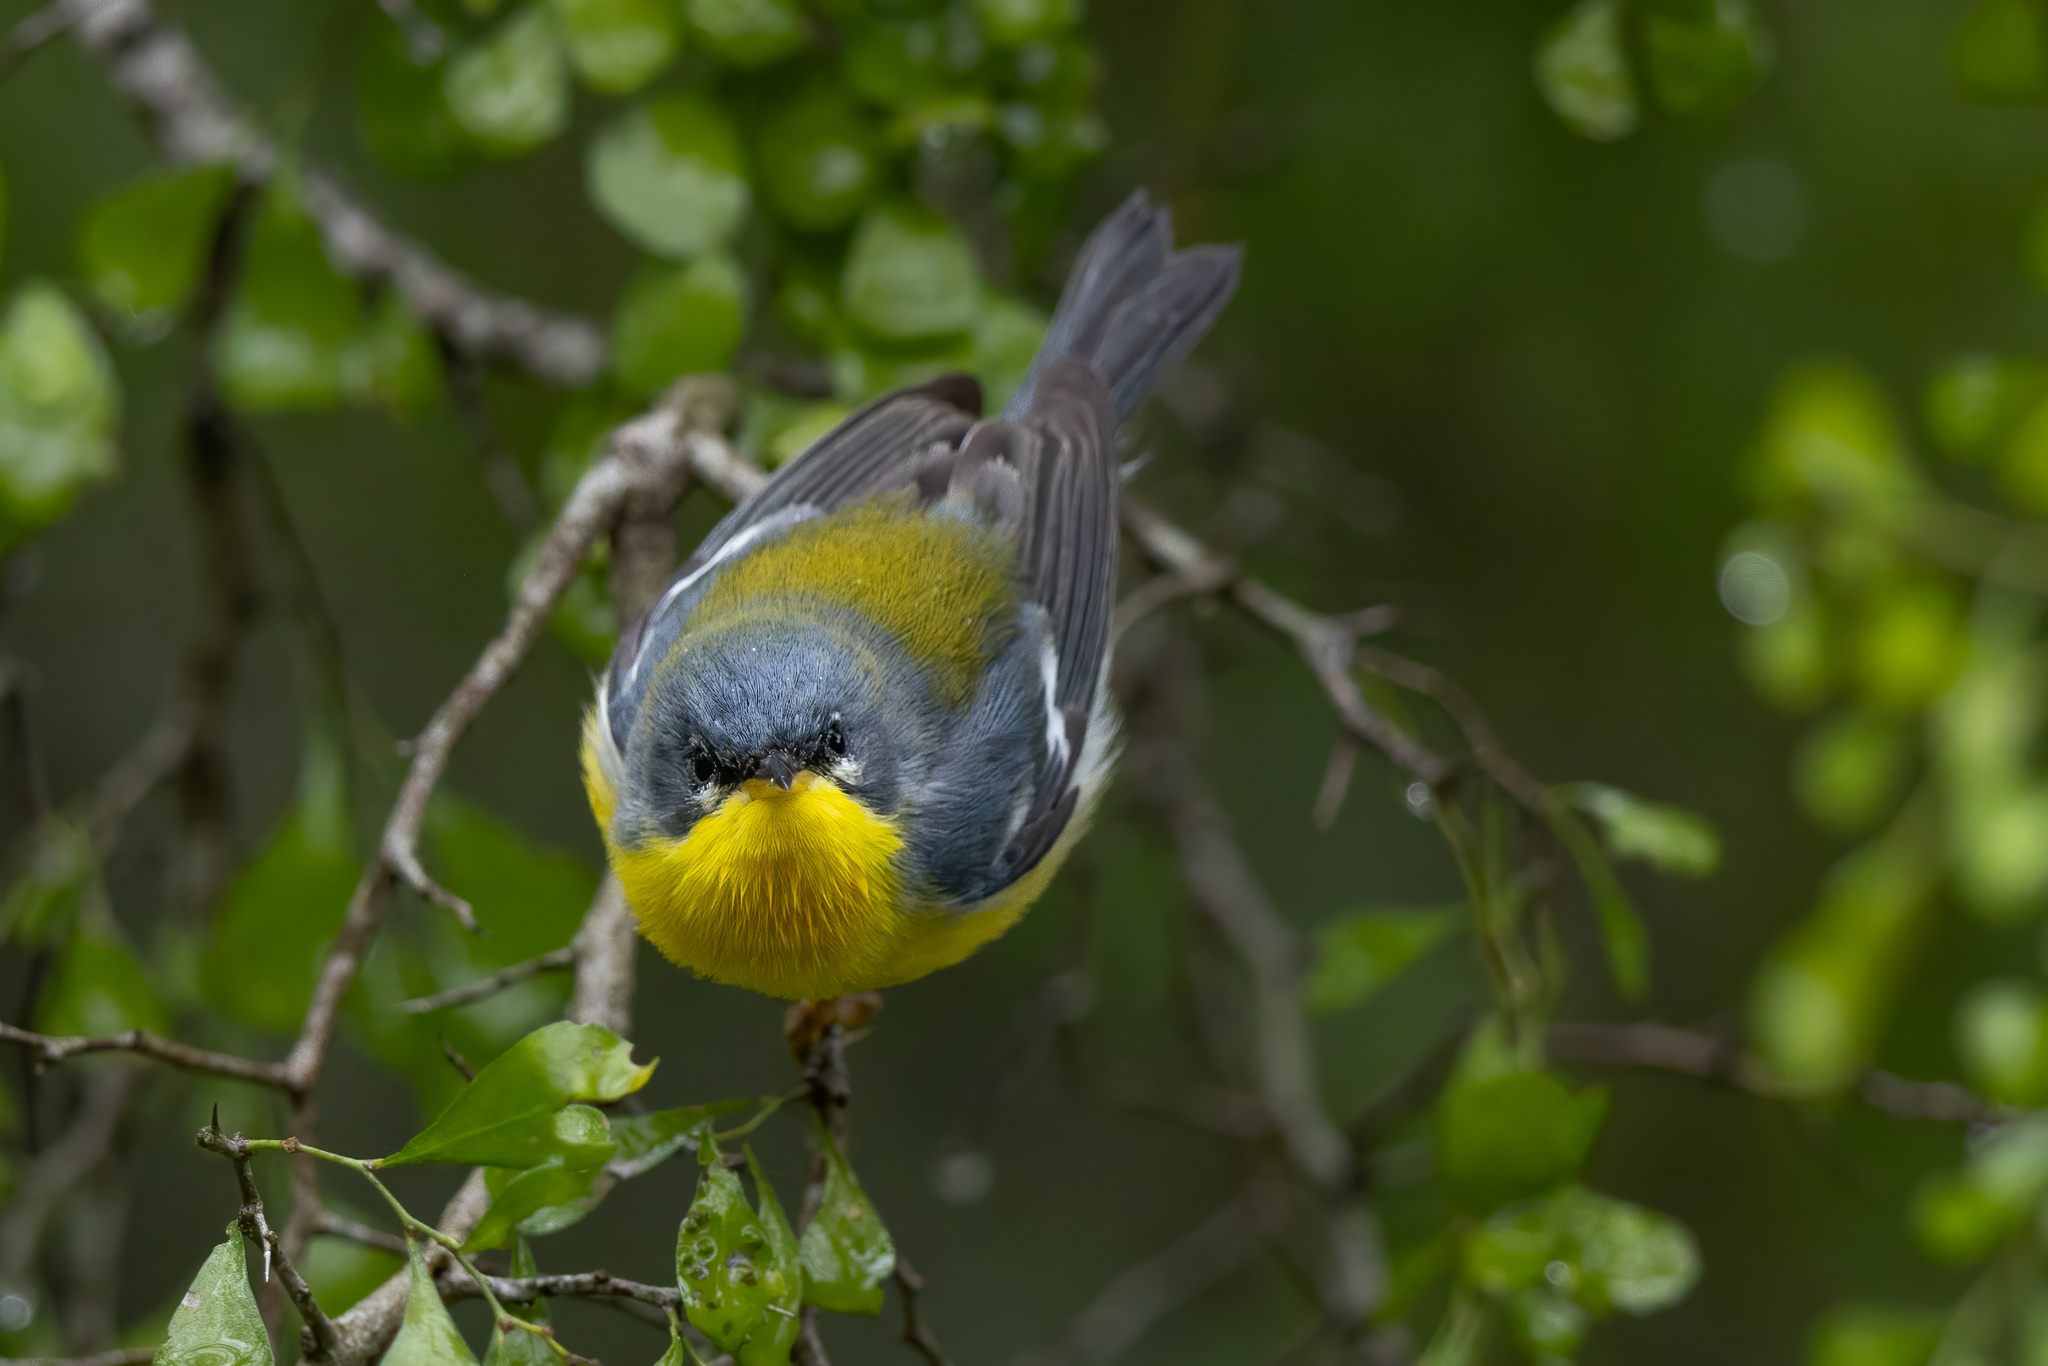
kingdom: Animalia
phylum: Chordata
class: Aves
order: Passeriformes
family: Parulidae
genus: Setophaga
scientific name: Setophaga
